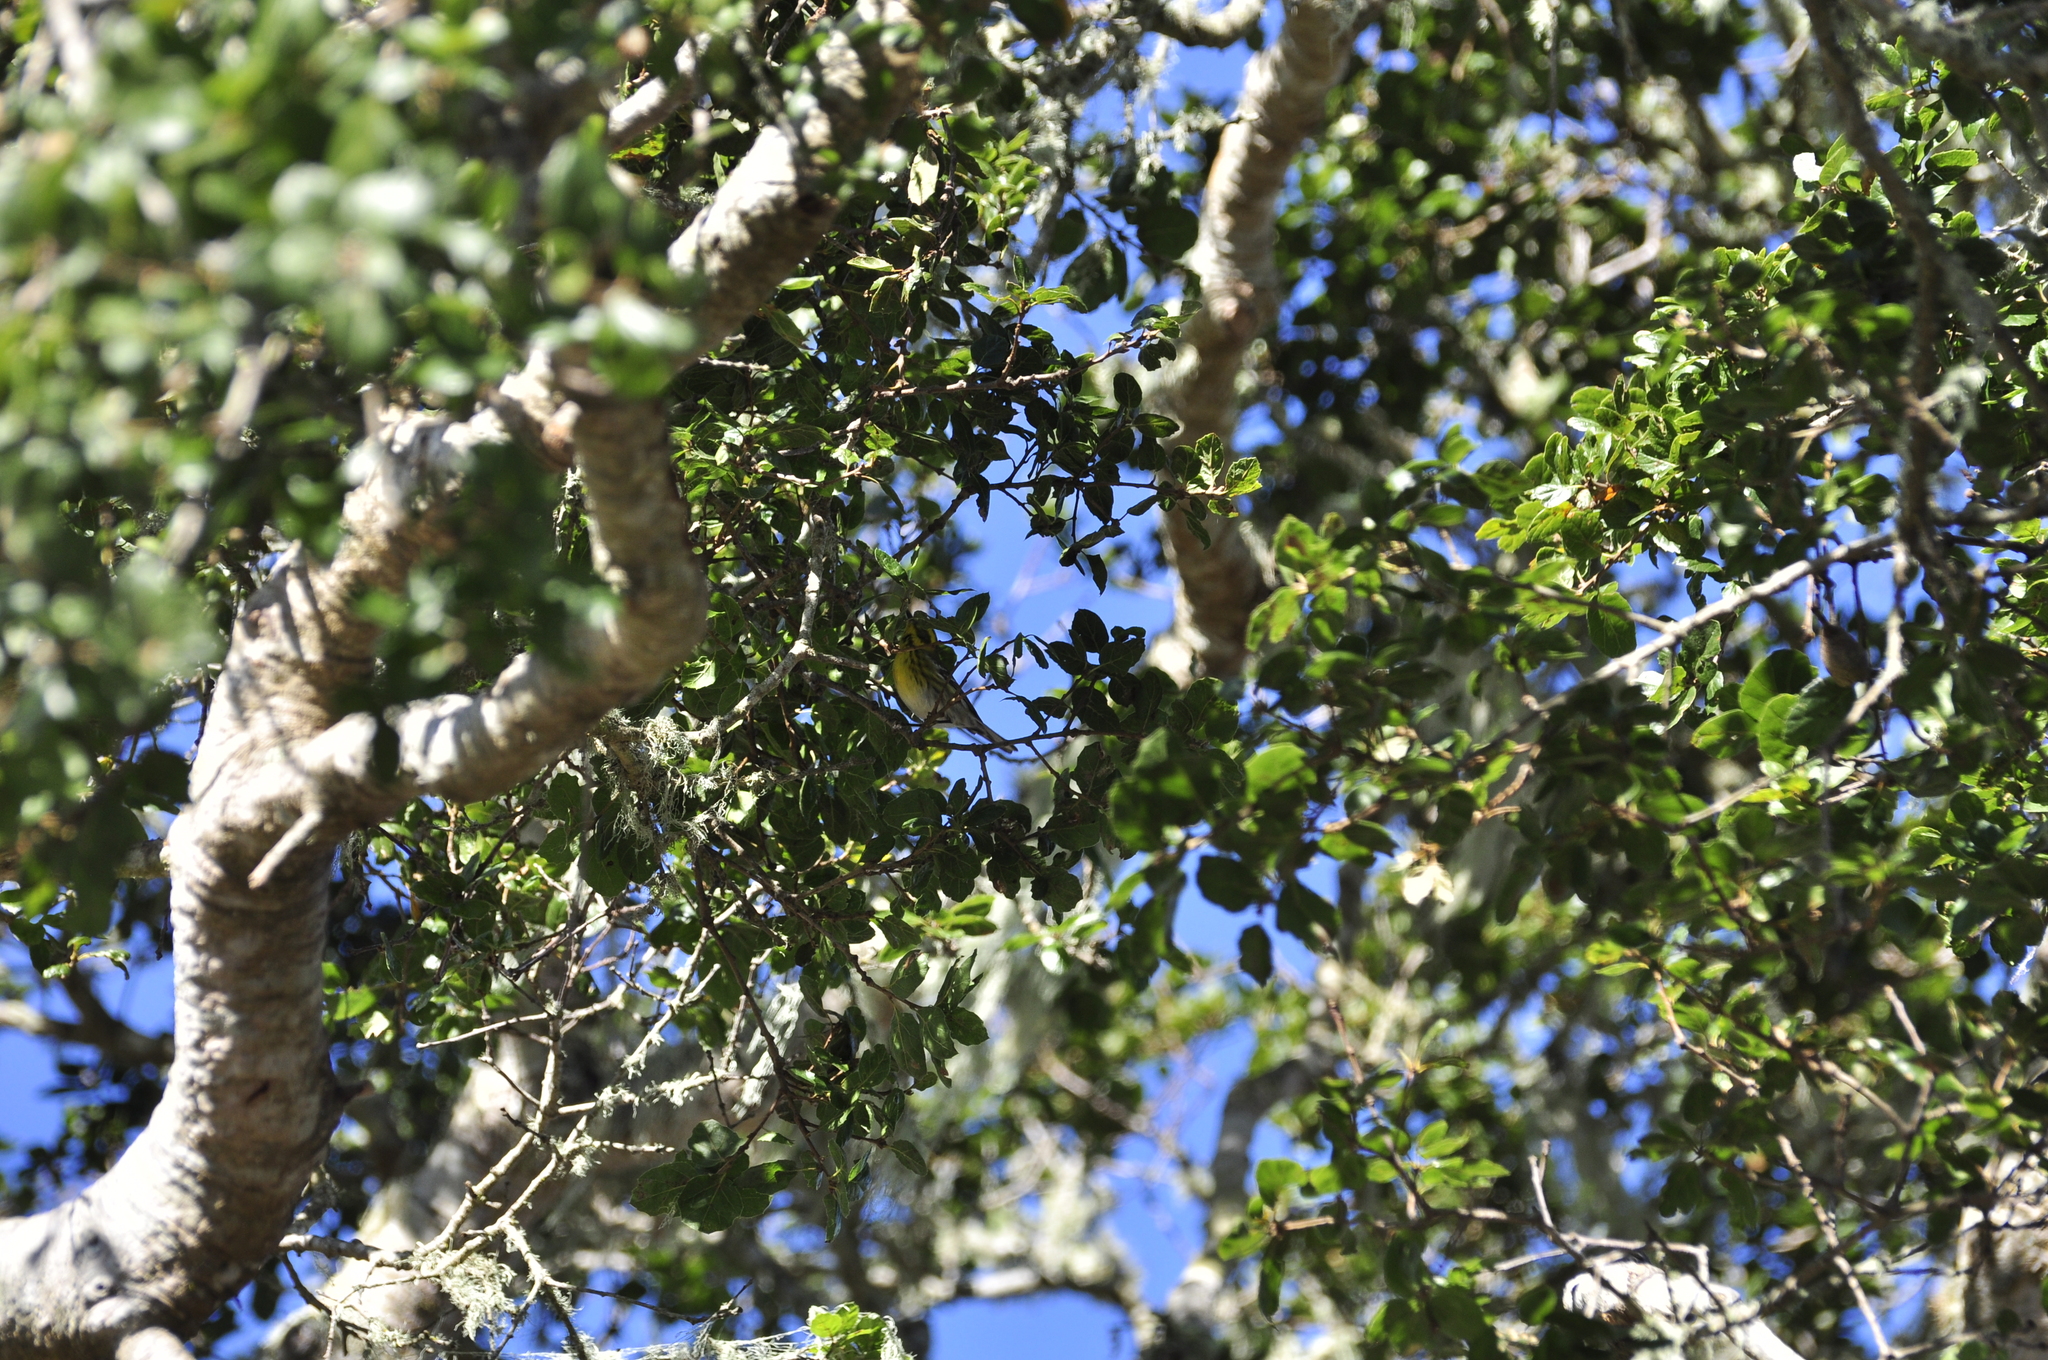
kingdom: Animalia
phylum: Chordata
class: Aves
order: Passeriformes
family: Parulidae
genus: Setophaga
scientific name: Setophaga townsendi
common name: Townsend's warbler
